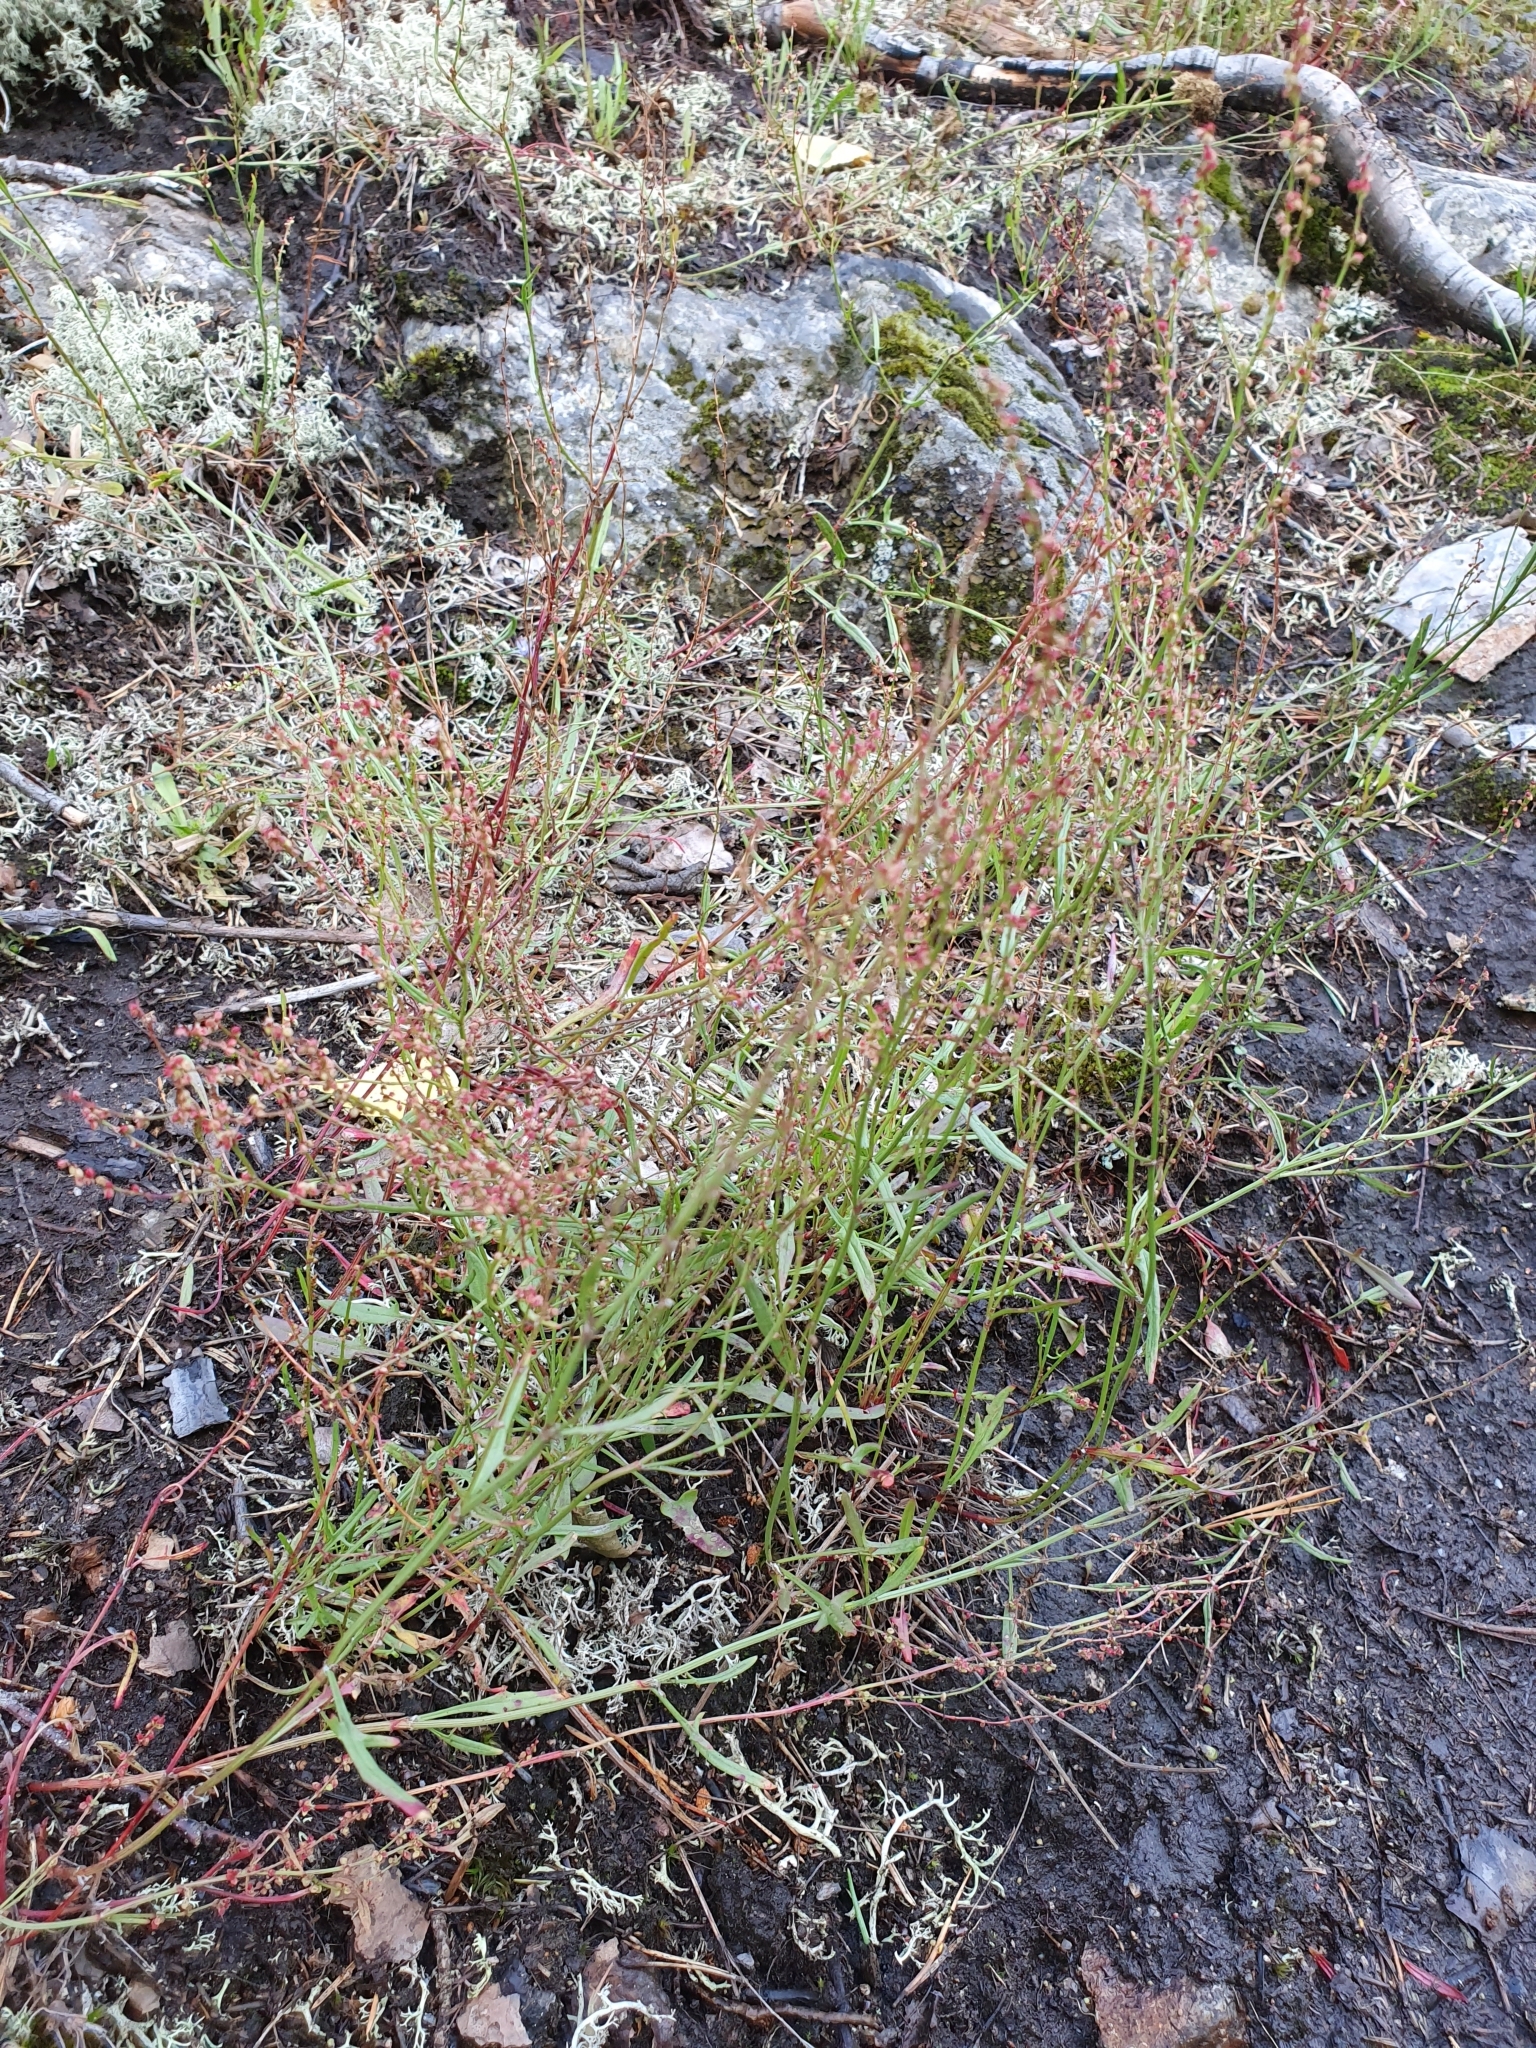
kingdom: Plantae
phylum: Tracheophyta
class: Magnoliopsida
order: Caryophyllales
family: Polygonaceae
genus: Rumex
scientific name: Rumex acetosella
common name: Common sheep sorrel
